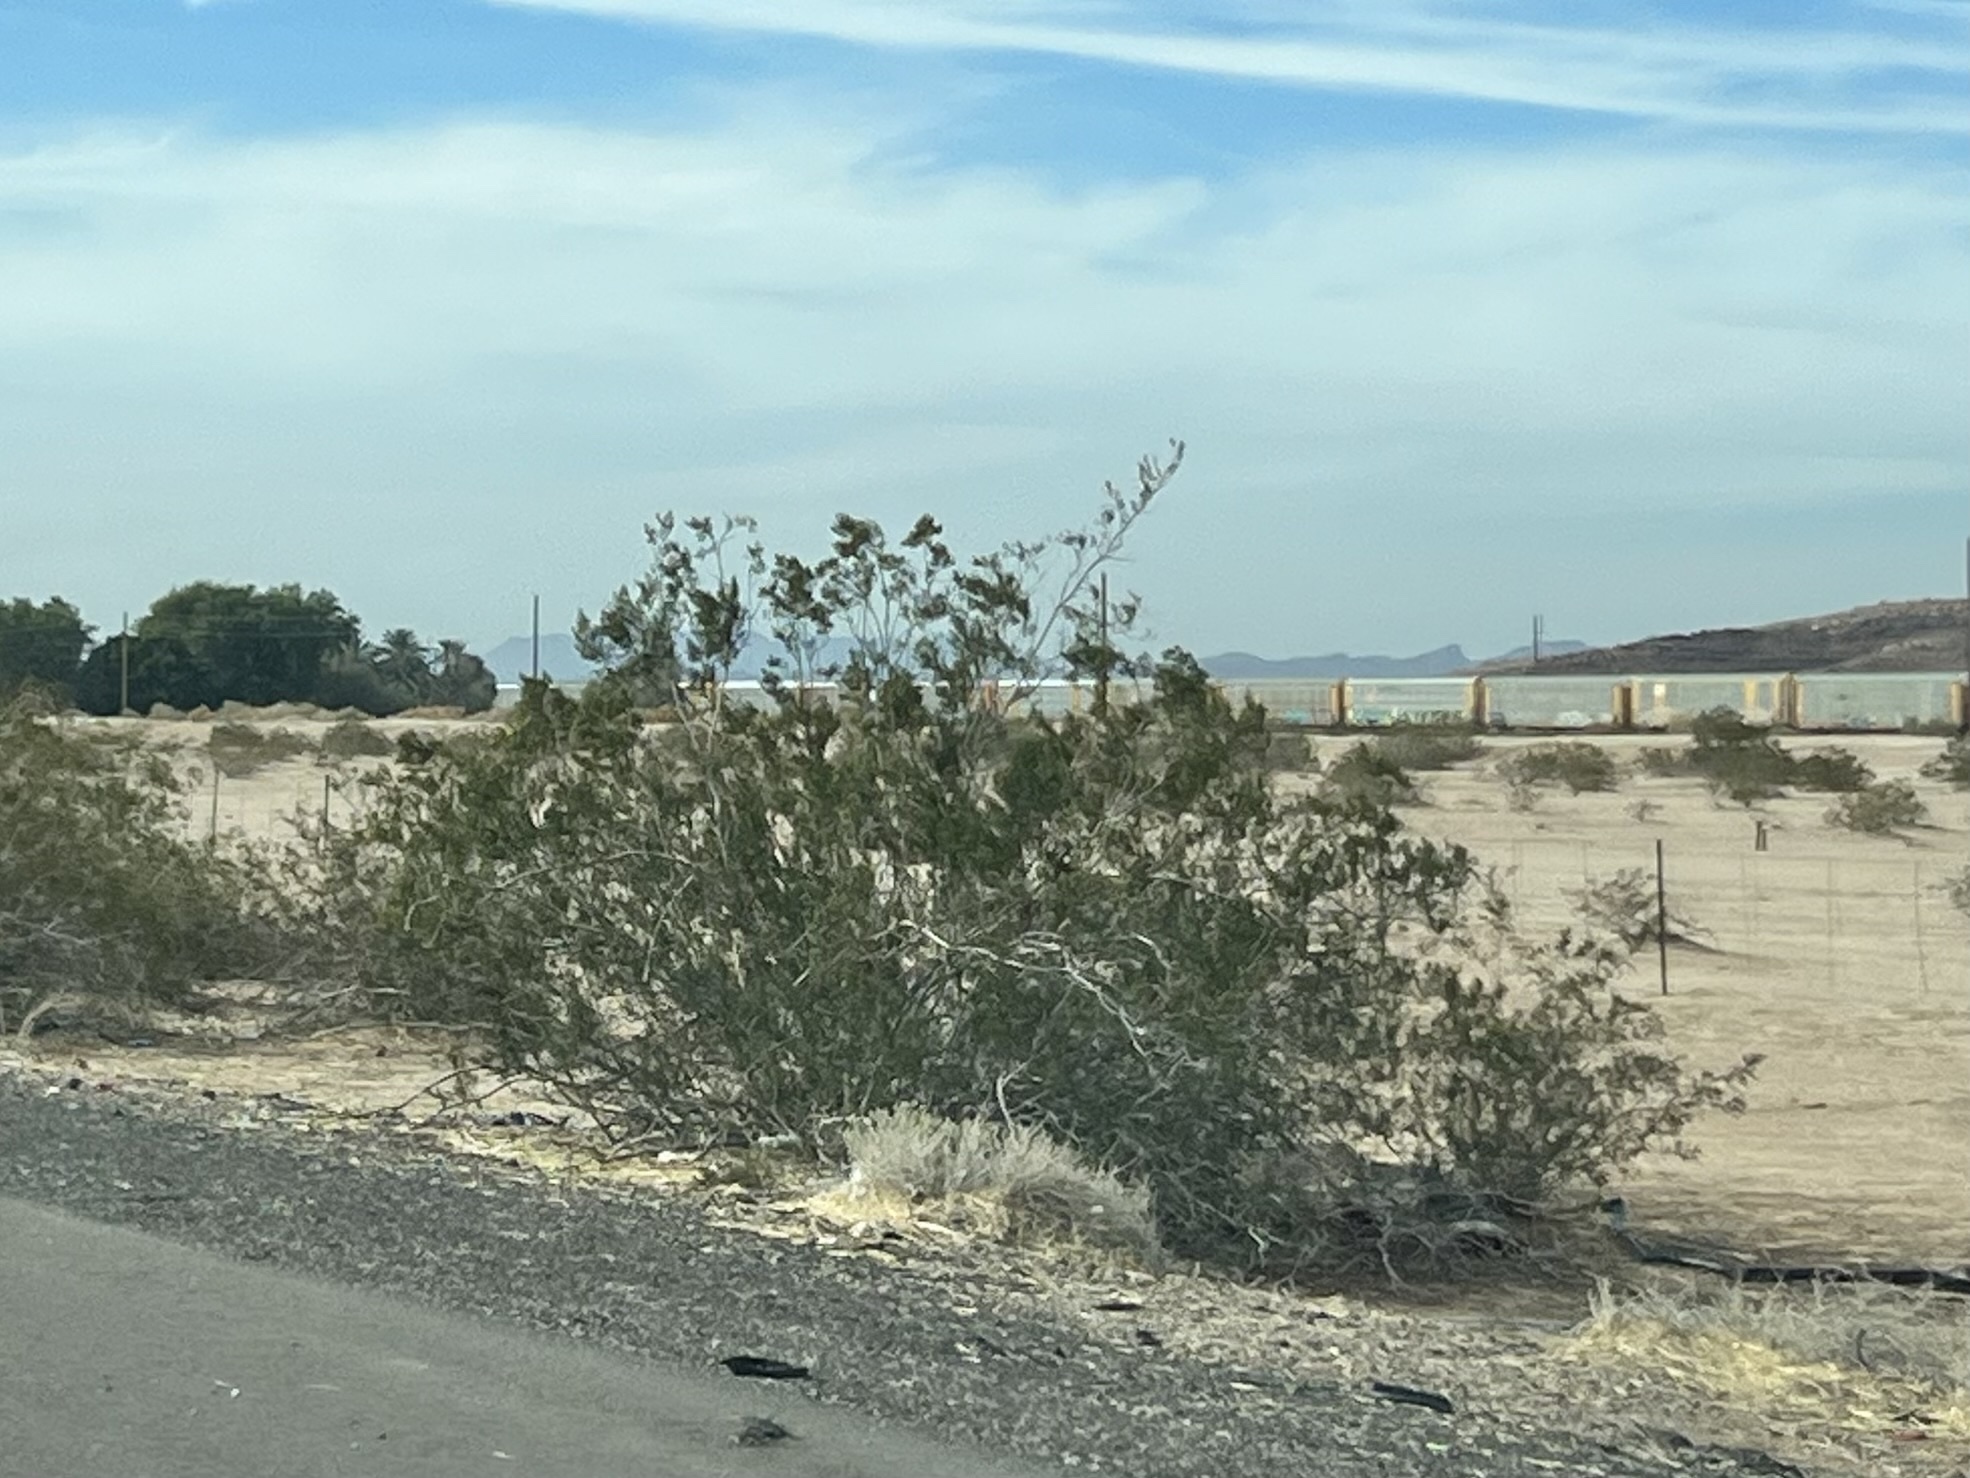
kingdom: Plantae
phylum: Tracheophyta
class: Magnoliopsida
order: Zygophyllales
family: Zygophyllaceae
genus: Larrea
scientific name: Larrea tridentata
